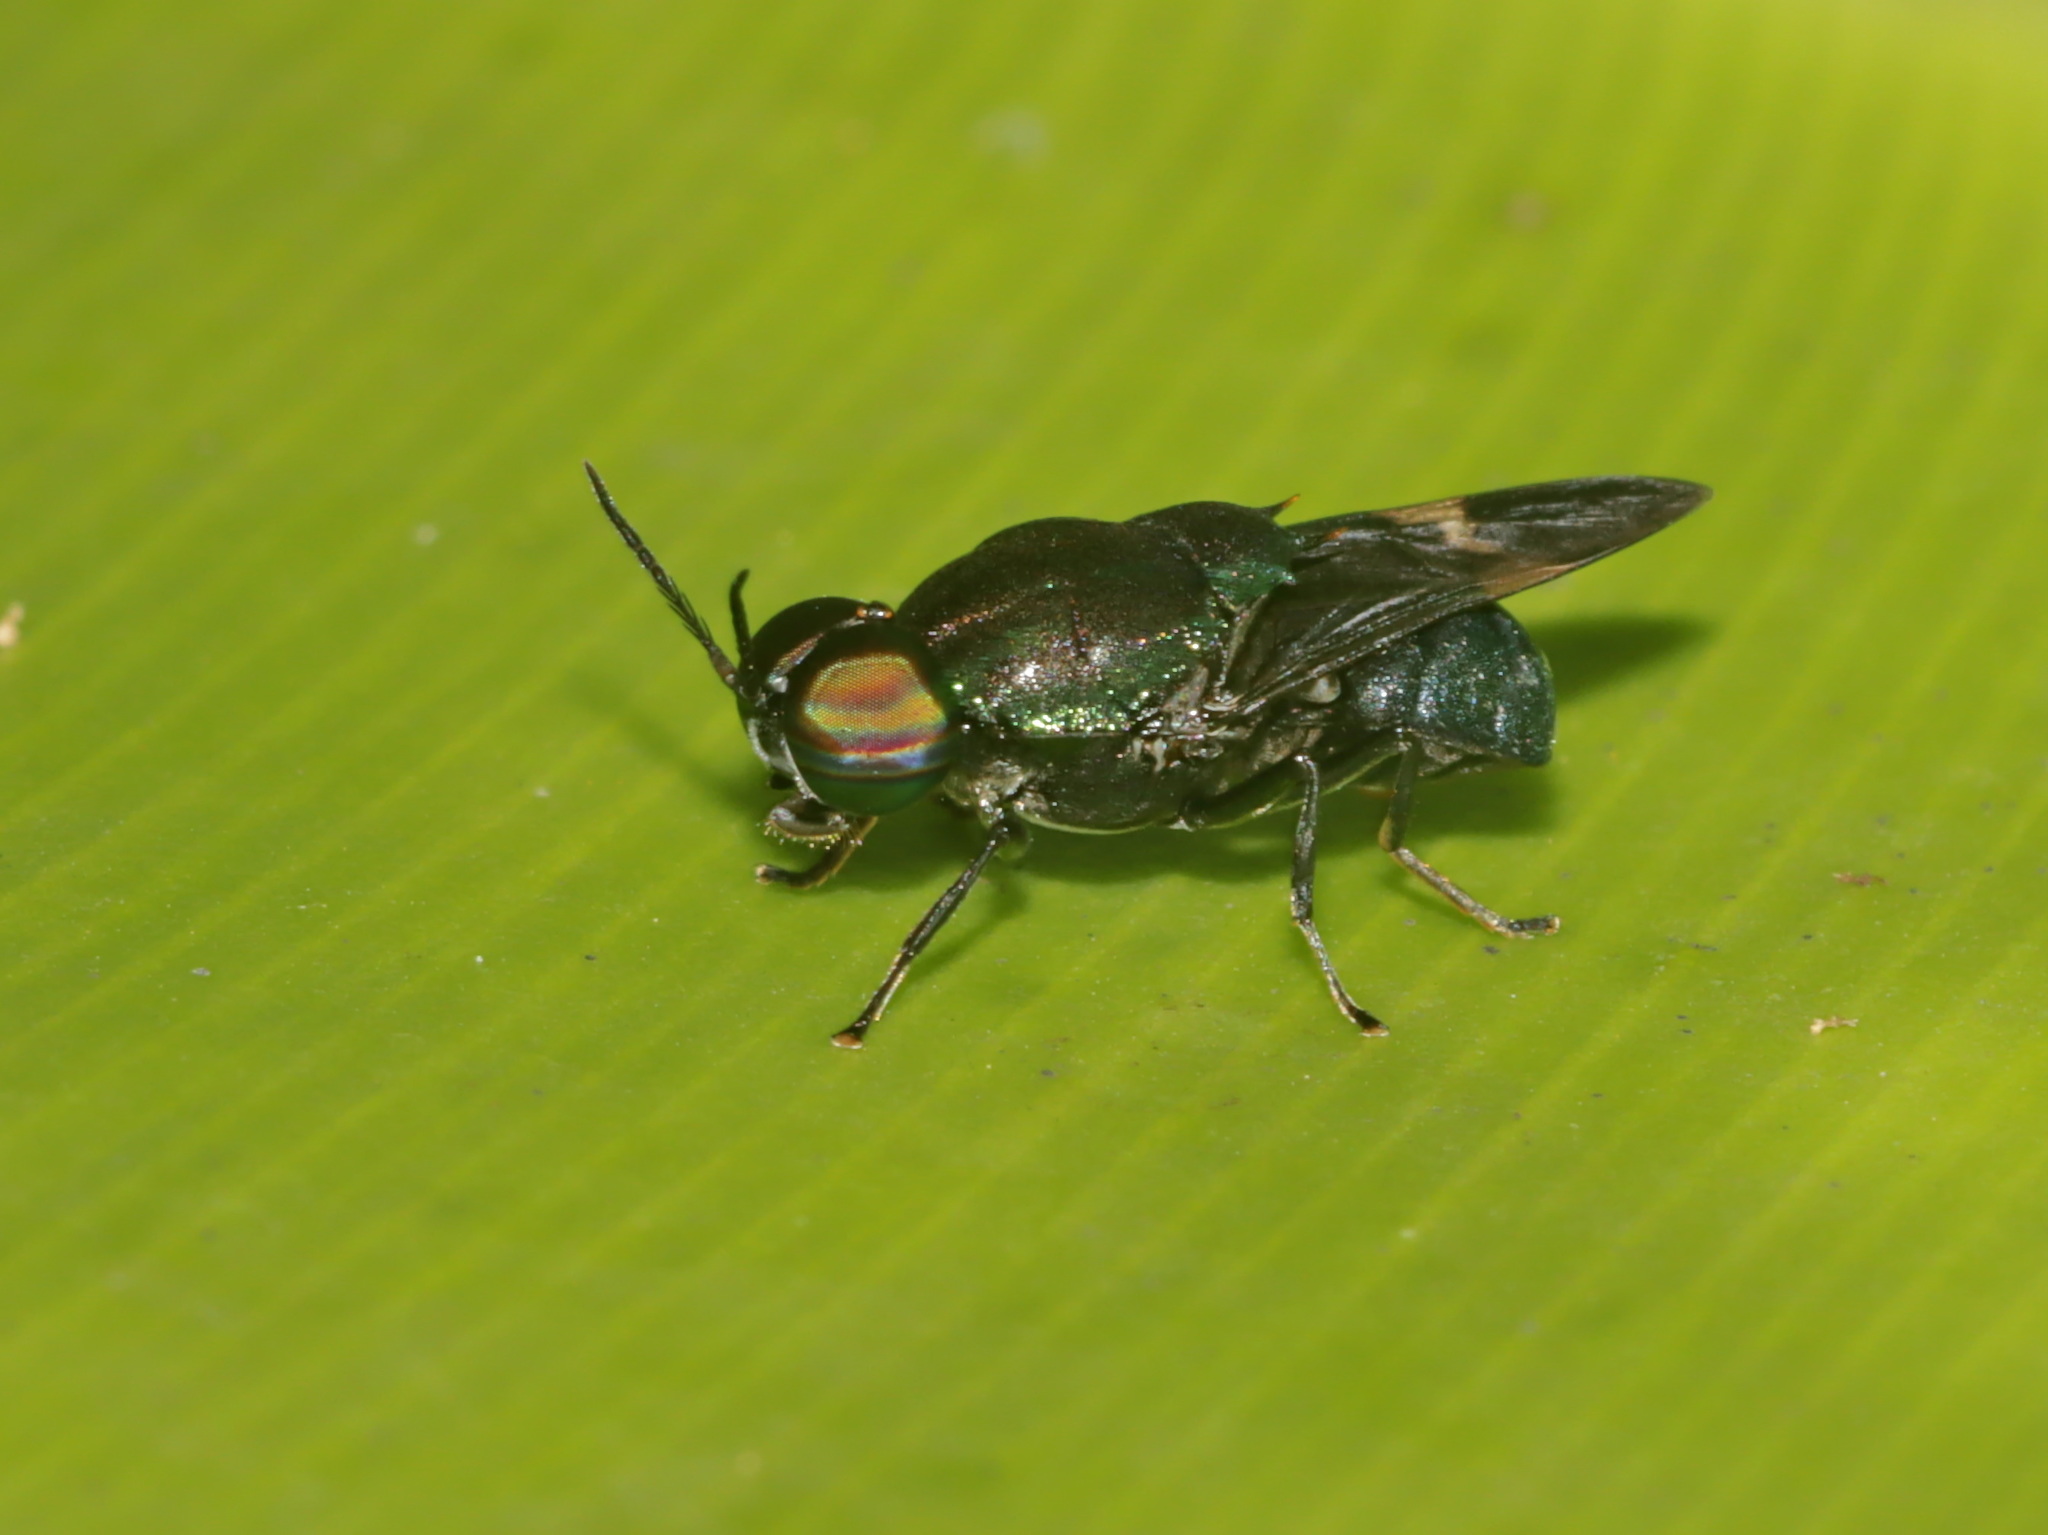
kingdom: Animalia
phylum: Arthropoda
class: Insecta
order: Diptera
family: Stratiomyidae
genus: Ptilocera
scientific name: Ptilocera continua
